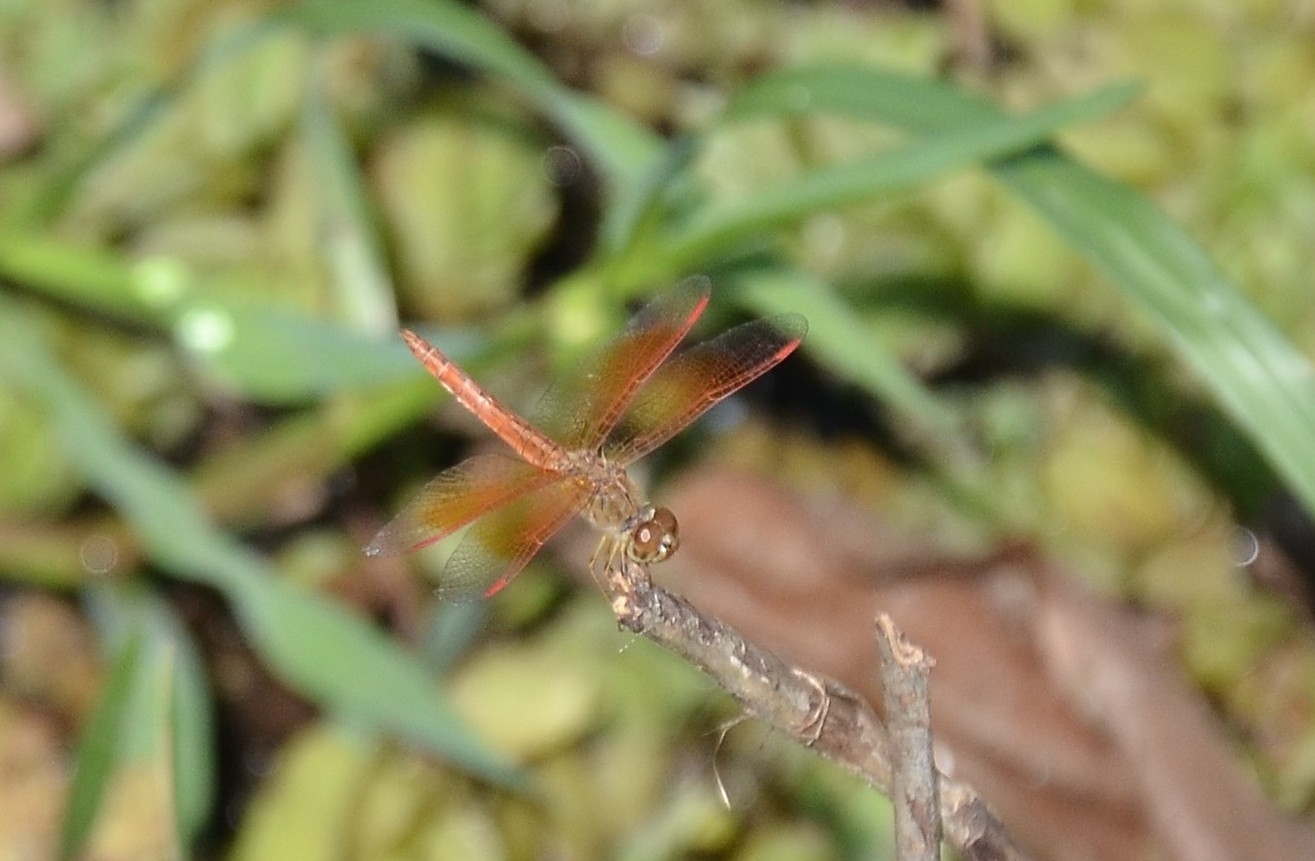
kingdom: Animalia
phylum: Arthropoda
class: Insecta
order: Odonata
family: Libellulidae
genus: Brachythemis
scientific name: Brachythemis contaminata
